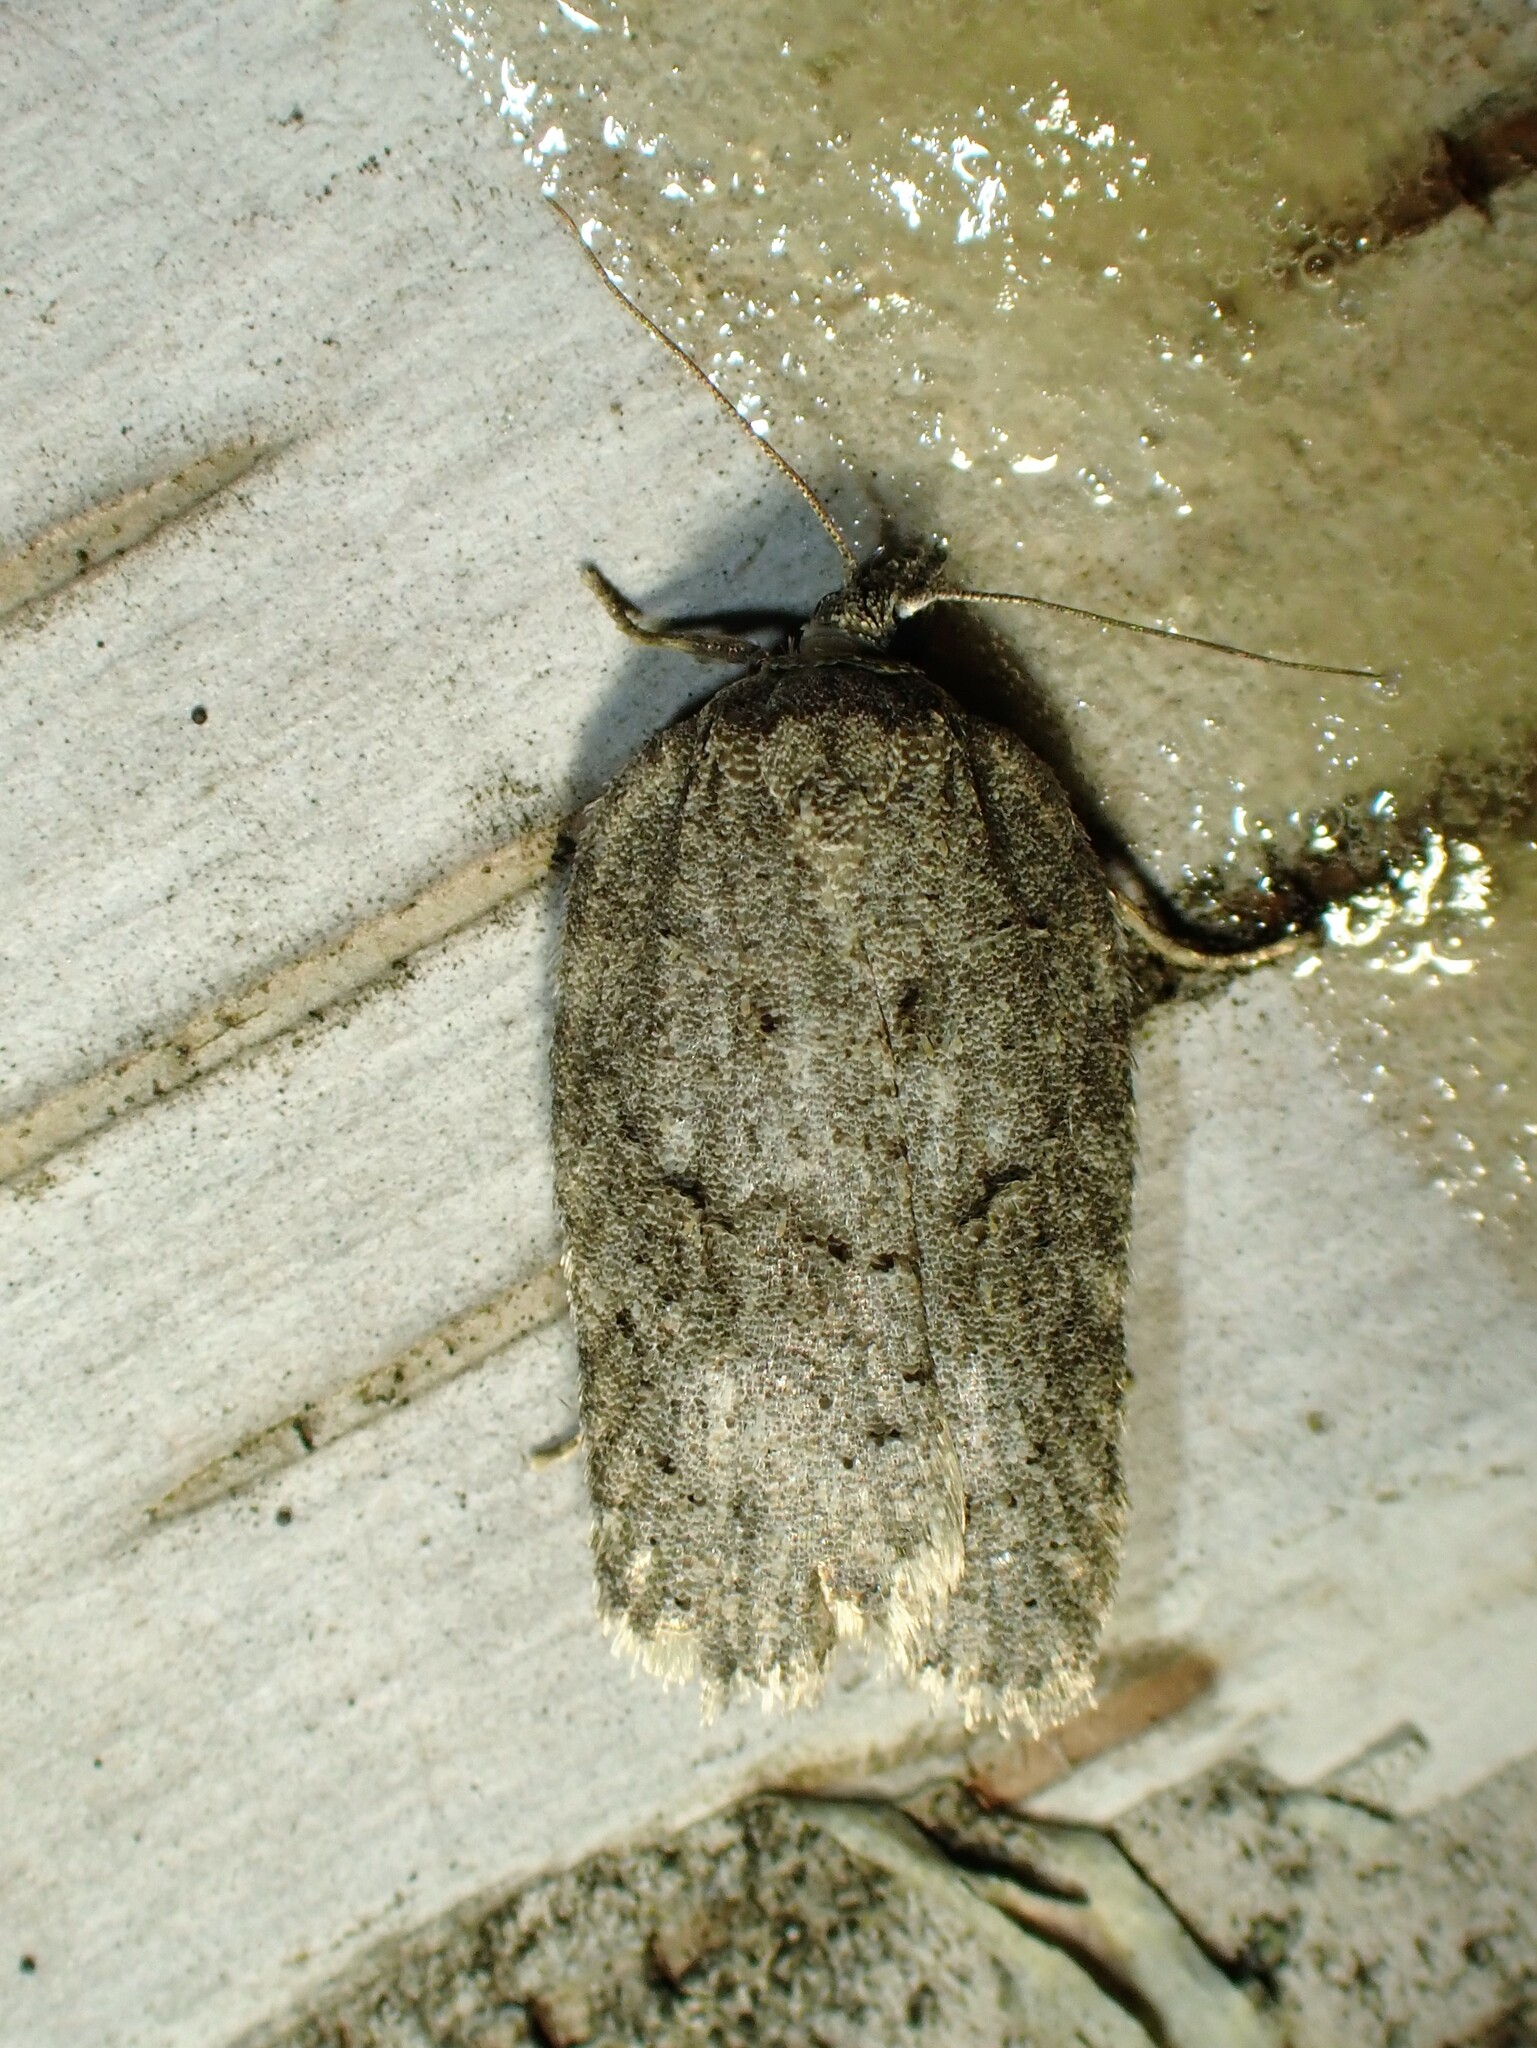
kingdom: Animalia
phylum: Arthropoda
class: Insecta
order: Lepidoptera
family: Tortricidae
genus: Acleris
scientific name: Acleris nigrolinea
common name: Black-lined acleris
